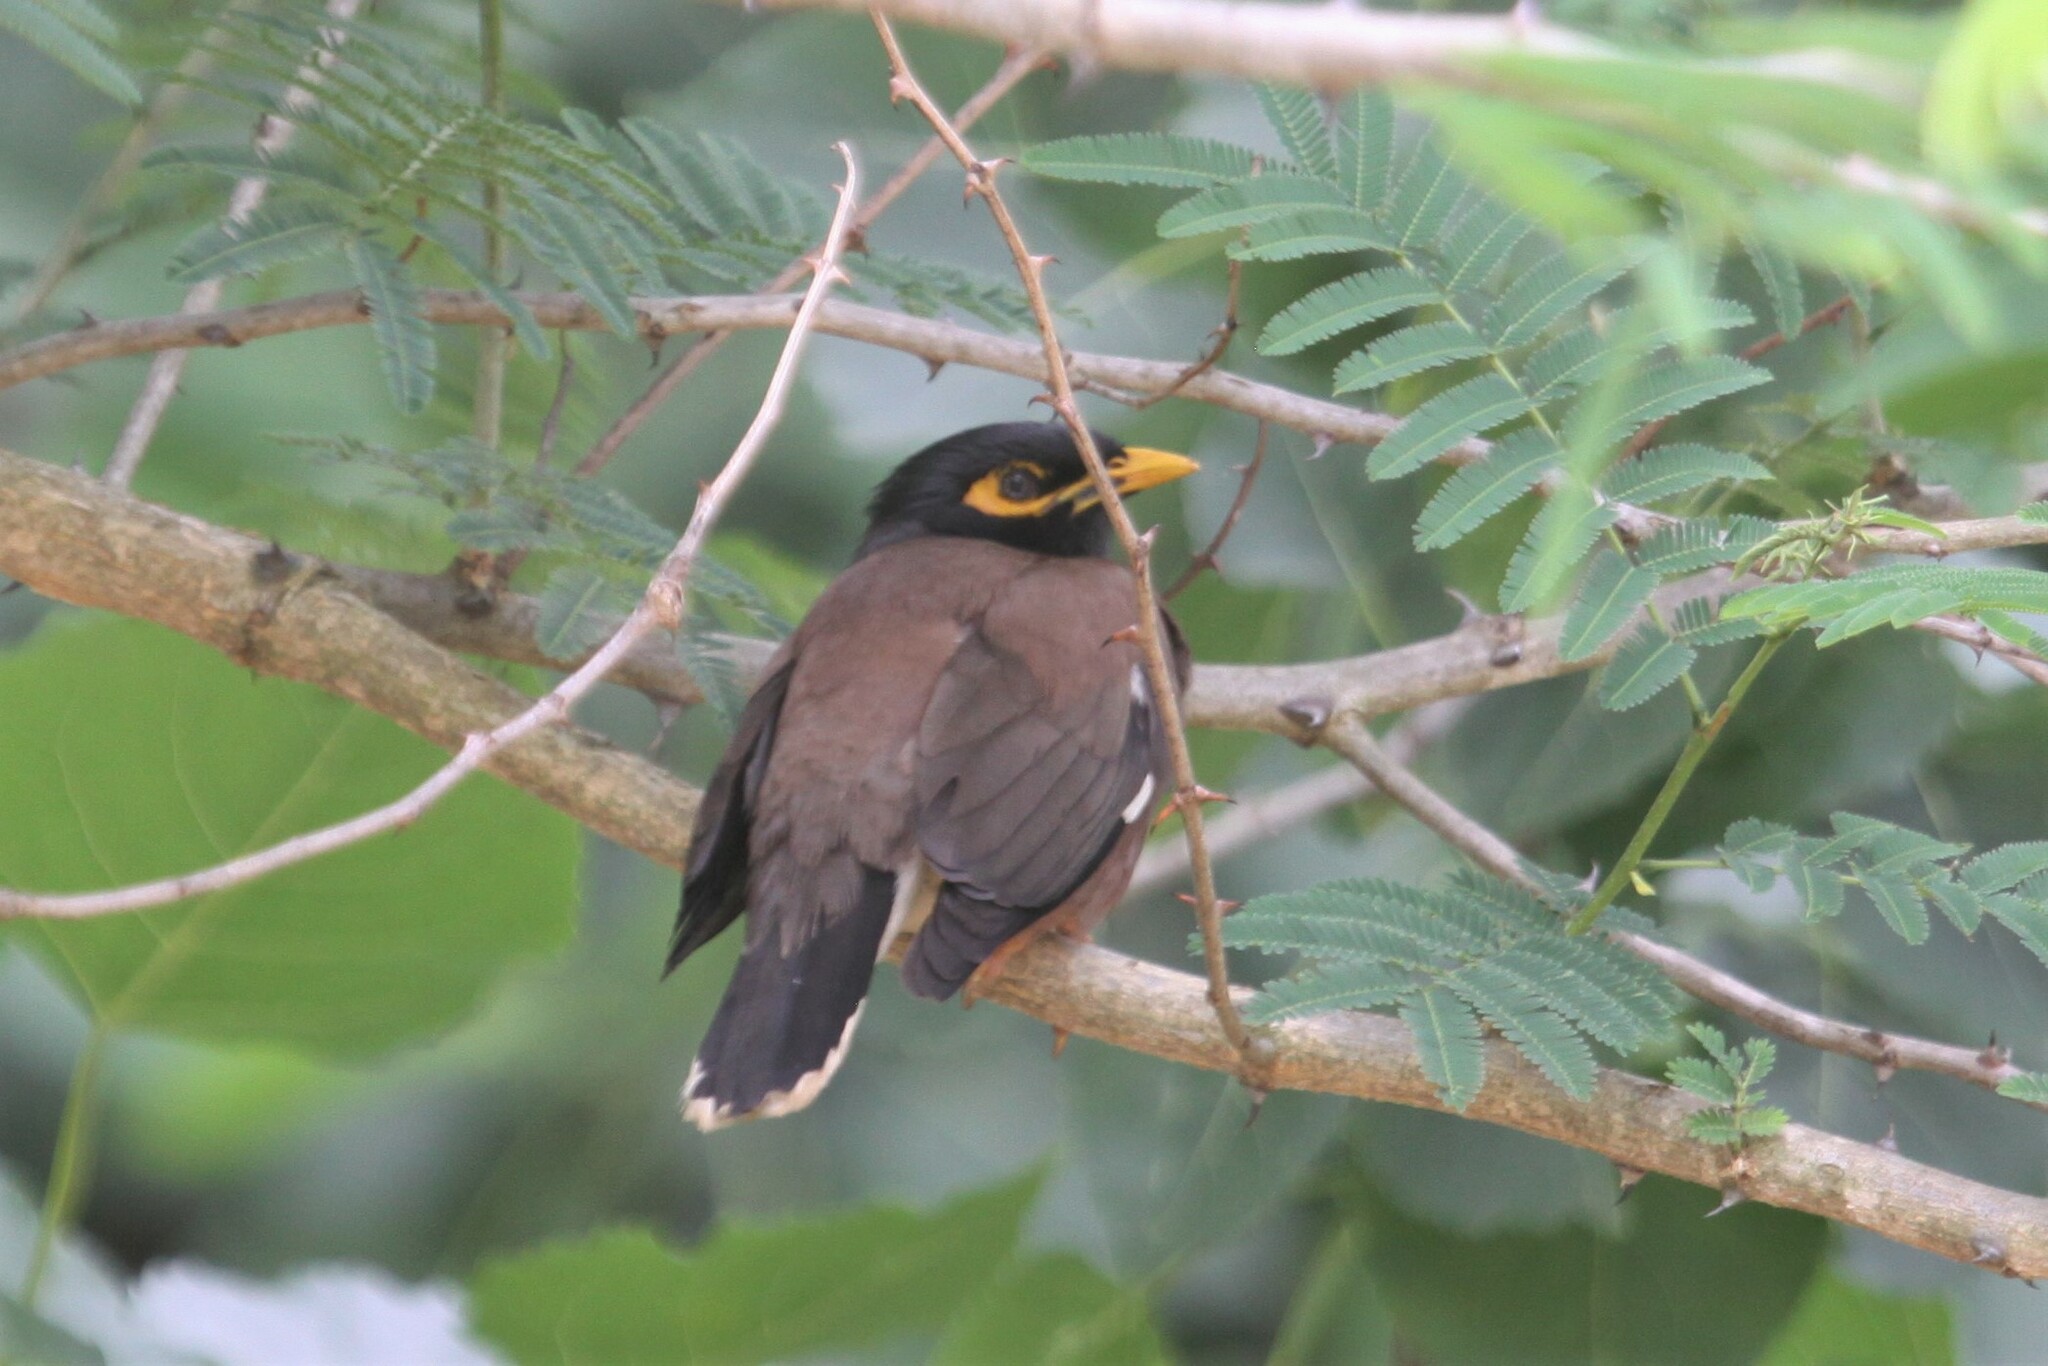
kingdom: Animalia
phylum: Chordata
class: Aves
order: Passeriformes
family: Sturnidae
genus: Acridotheres
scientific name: Acridotheres tristis
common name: Common myna
